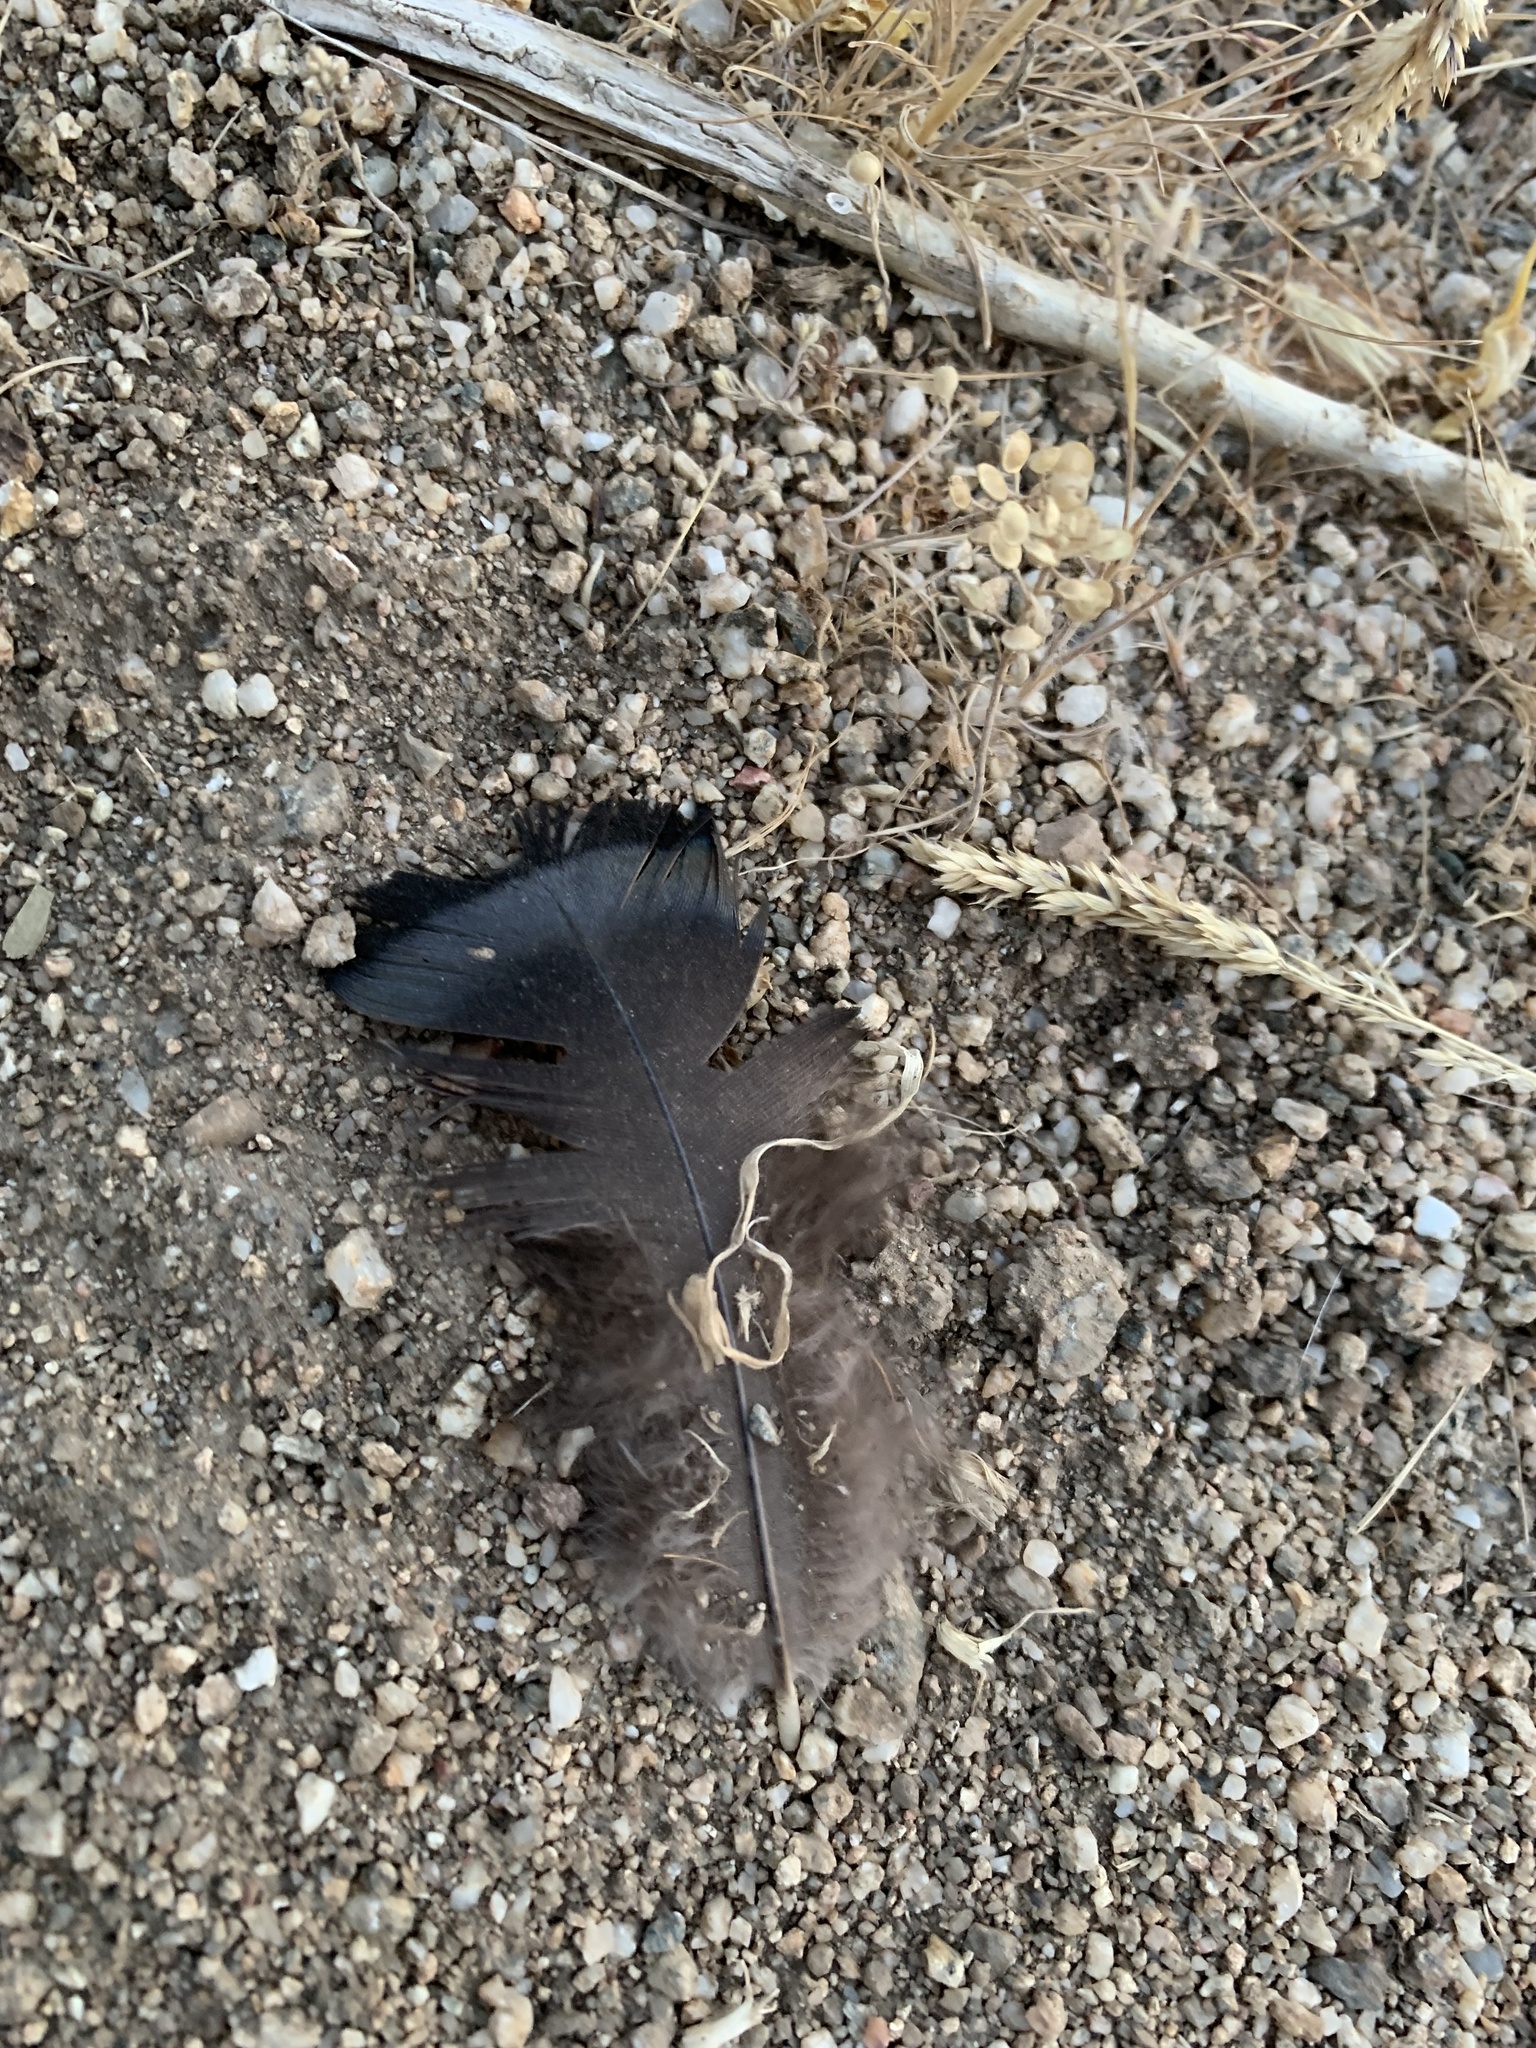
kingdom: Animalia
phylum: Chordata
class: Aves
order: Galliformes
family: Phasianidae
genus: Meleagris
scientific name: Meleagris gallopavo
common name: Wild turkey
